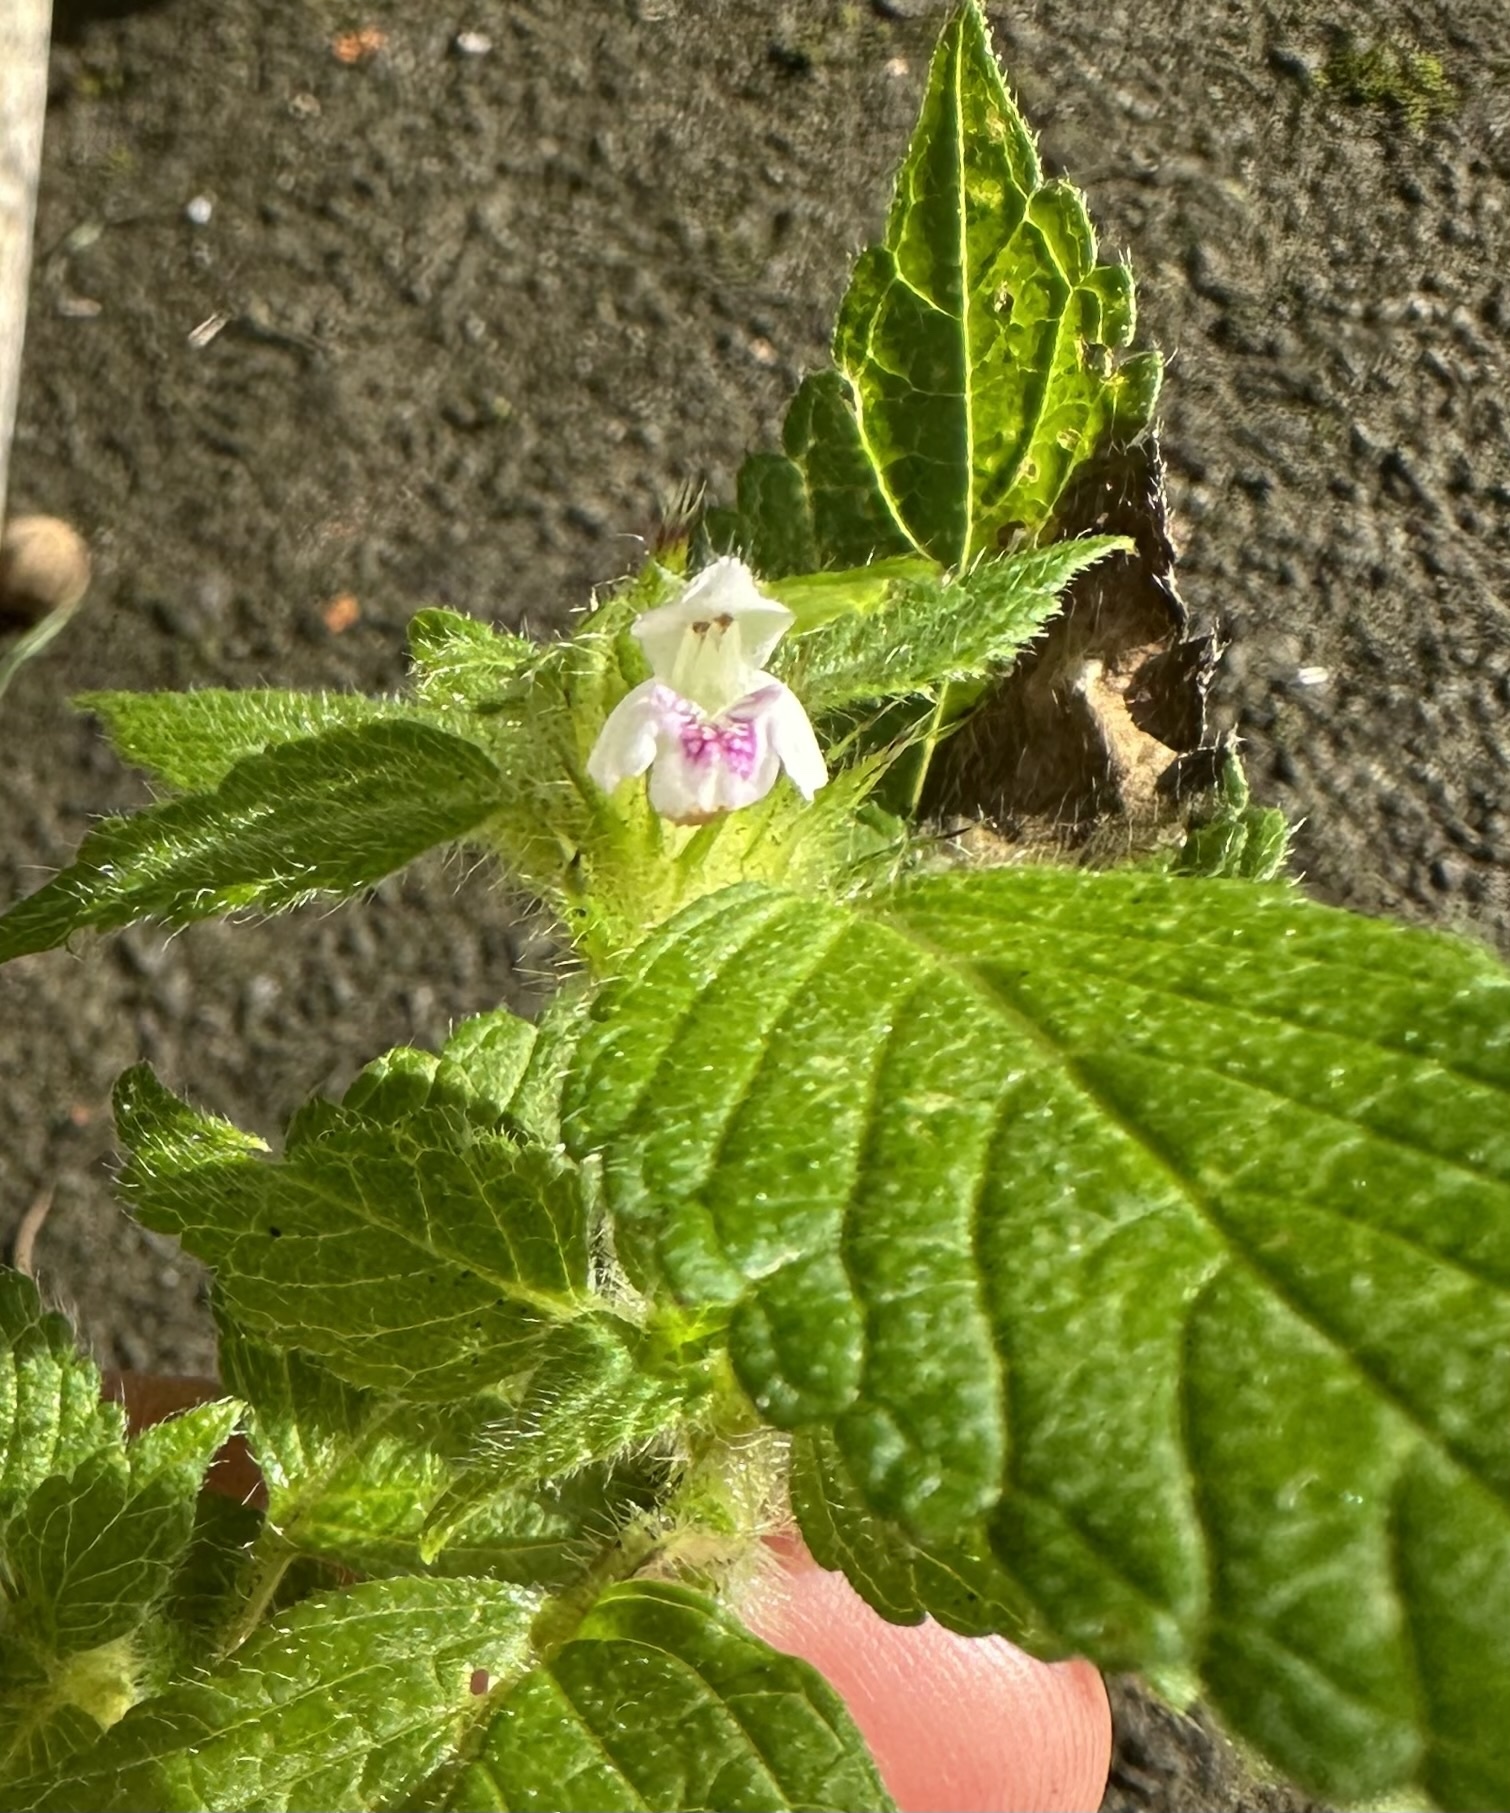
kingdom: Plantae
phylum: Tracheophyta
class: Magnoliopsida
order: Lamiales
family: Lamiaceae
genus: Galeopsis
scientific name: Galeopsis tetrahit
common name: Common hemp-nettle
